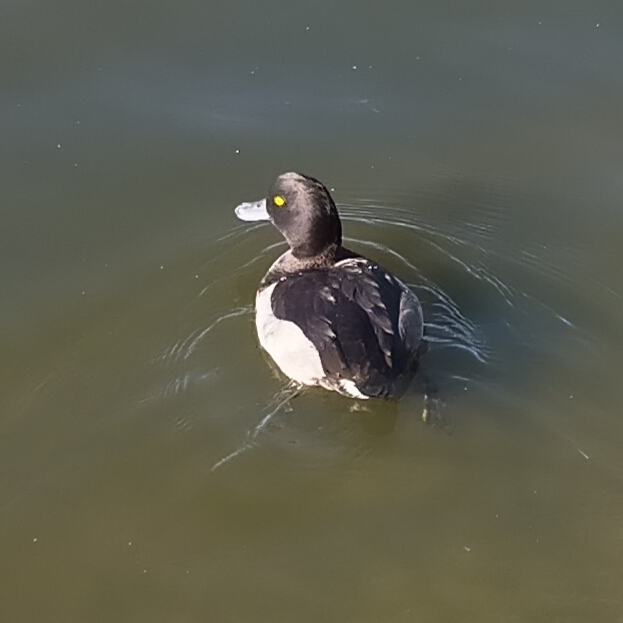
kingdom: Animalia
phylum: Chordata
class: Aves
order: Anseriformes
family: Anatidae
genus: Aythya
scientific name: Aythya fuligula
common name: Tufted duck
